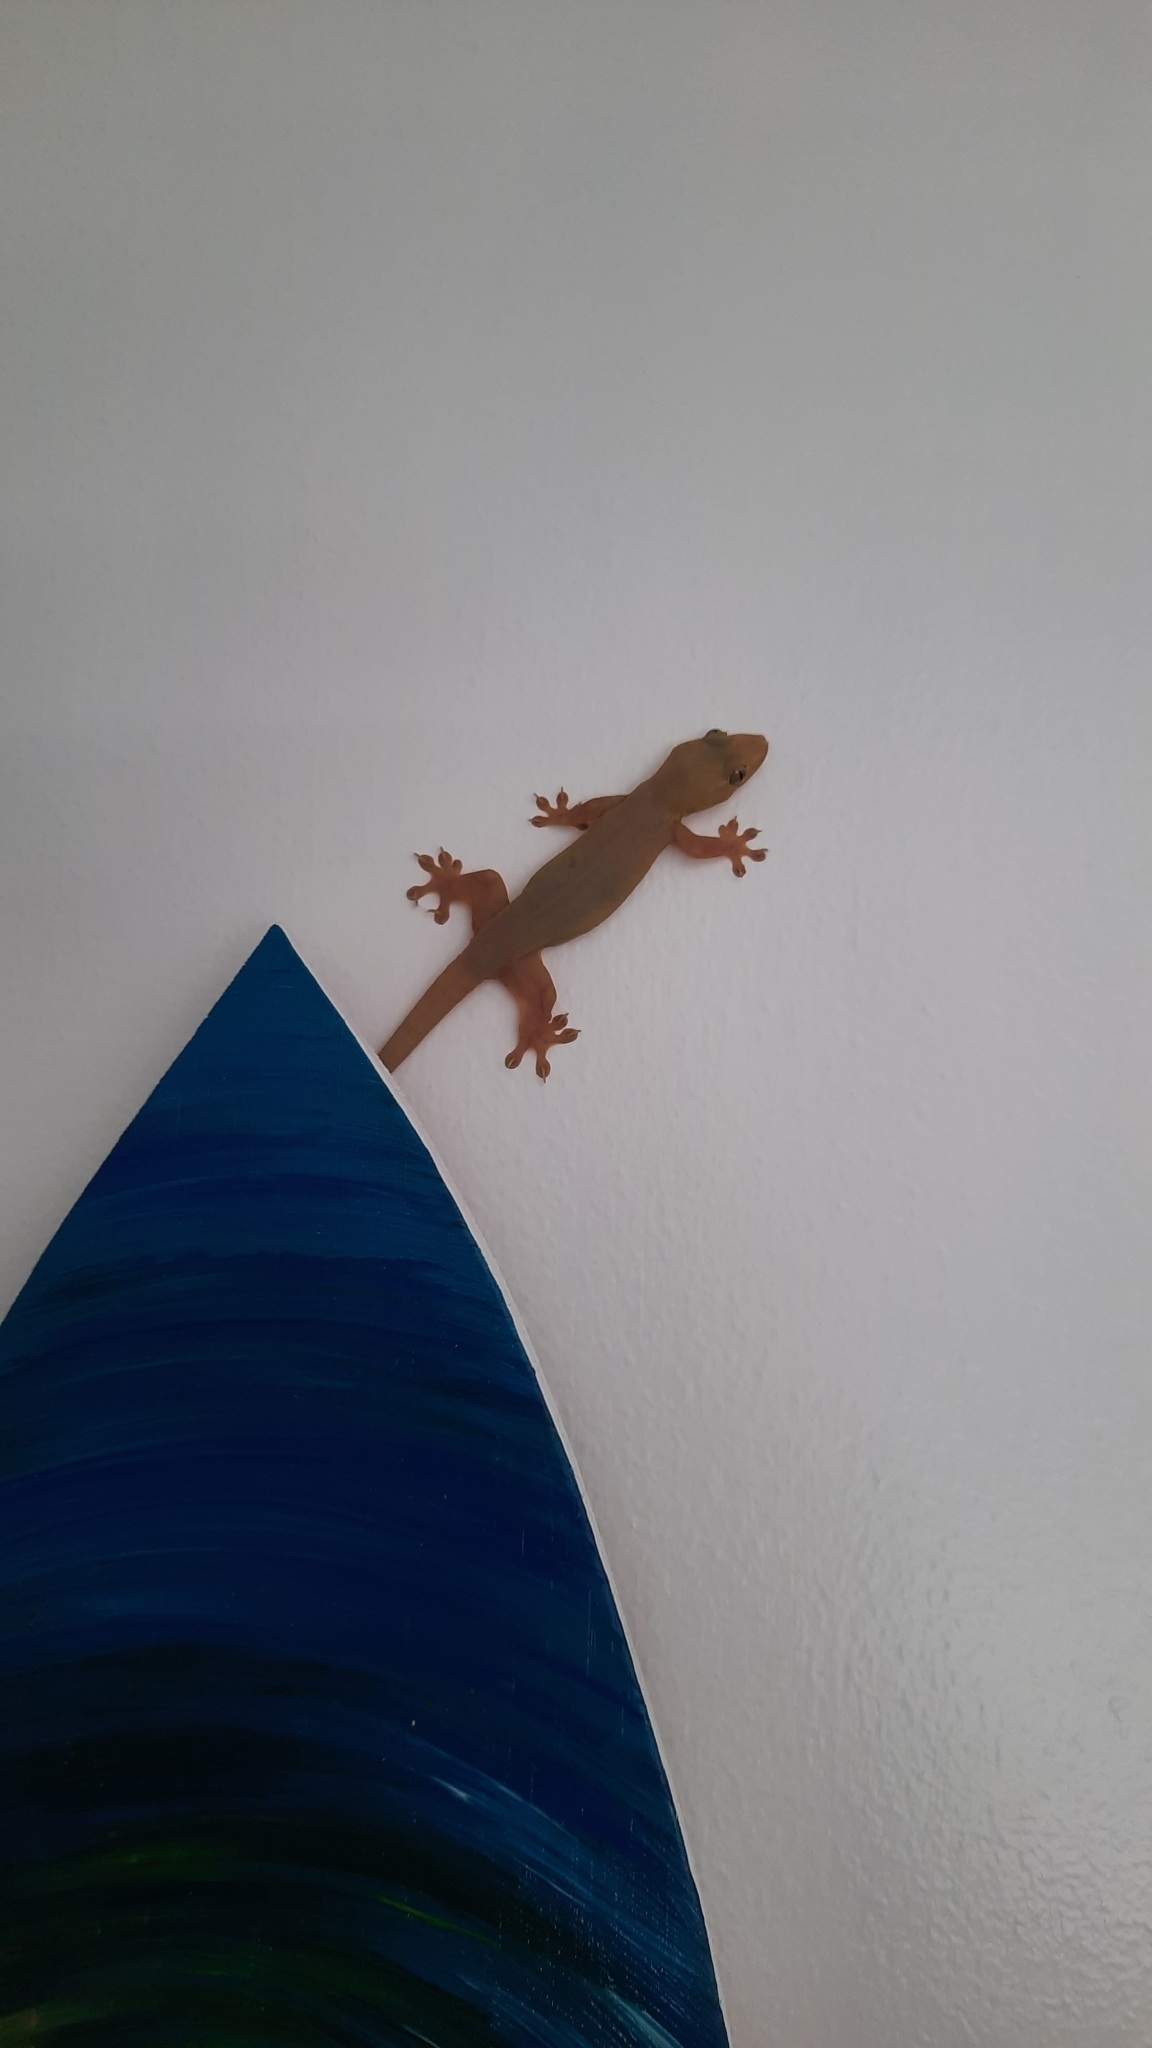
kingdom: Animalia
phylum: Chordata
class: Squamata
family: Gekkonidae
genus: Hemidactylus
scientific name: Hemidactylus frenatus
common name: Common house gecko
